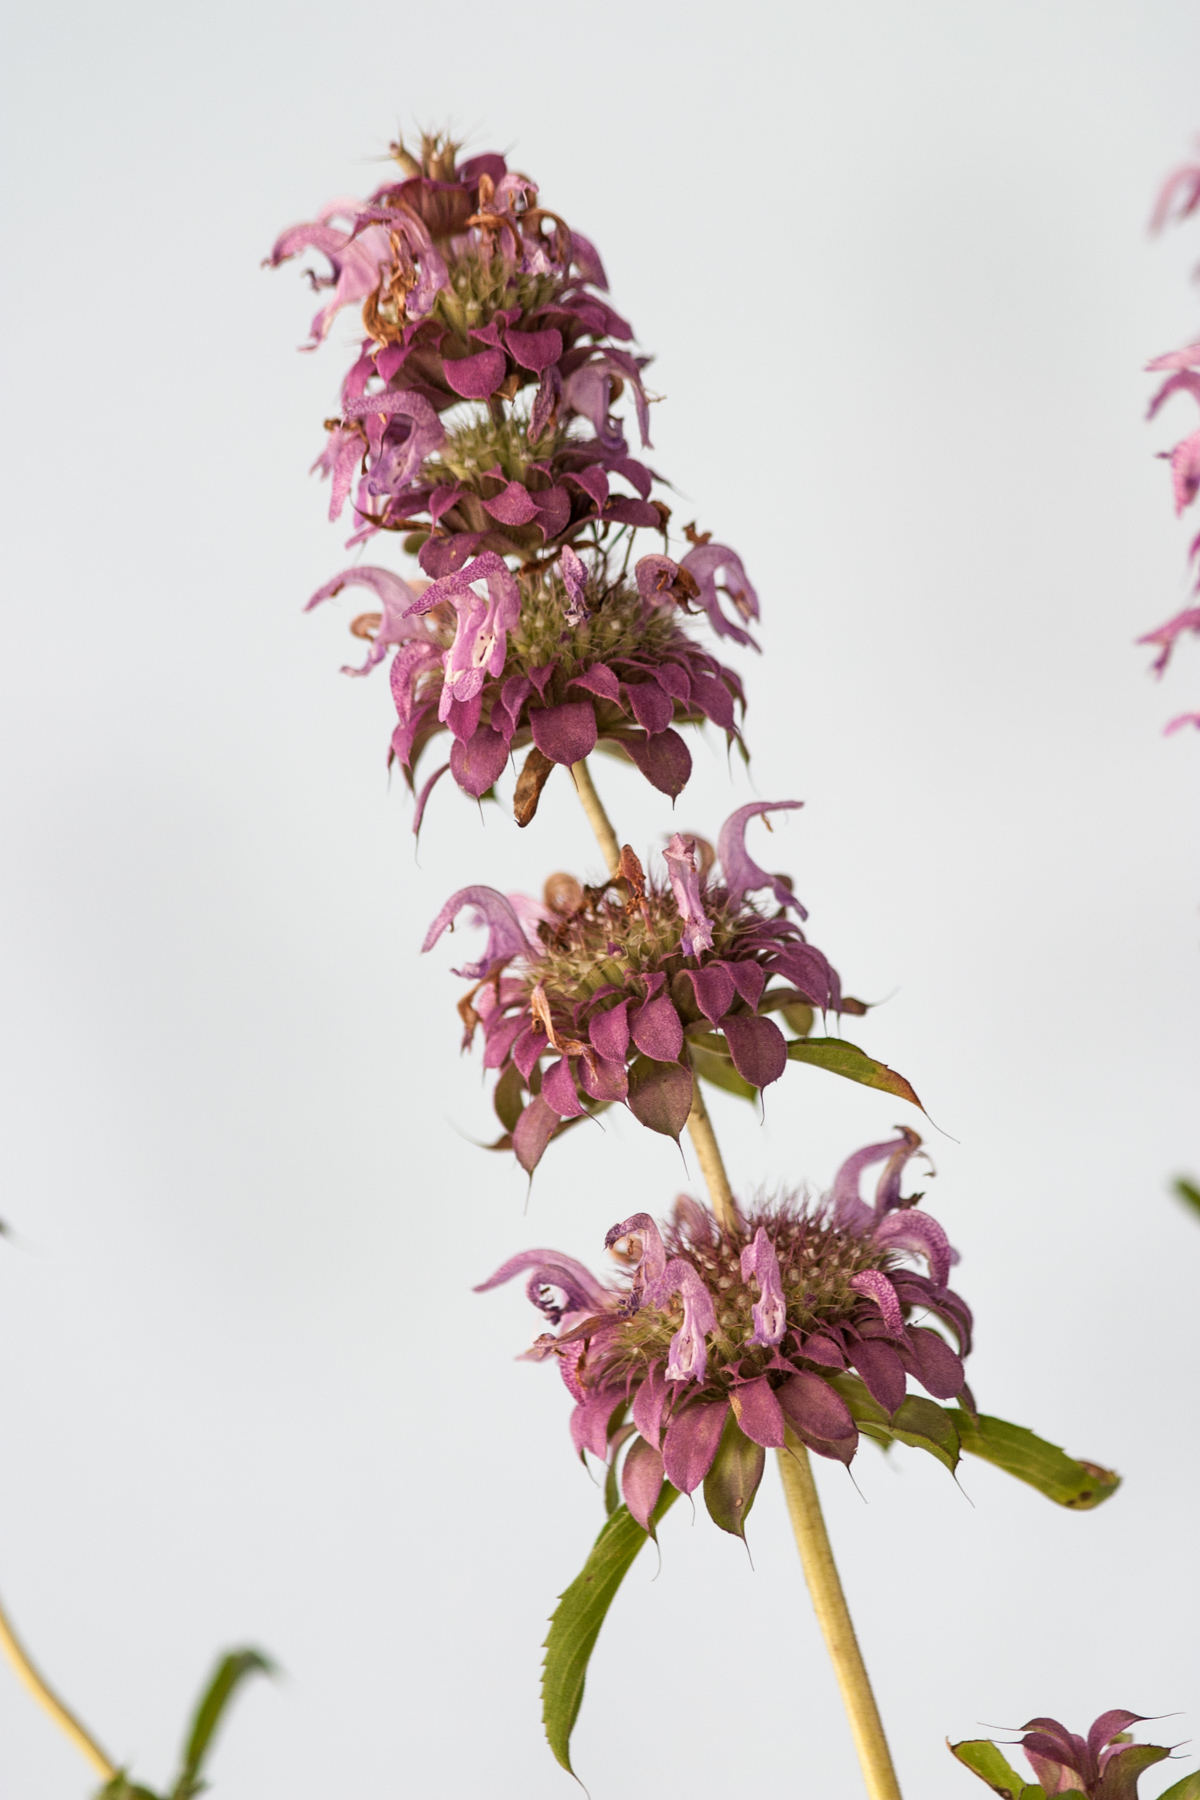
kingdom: Plantae
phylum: Tracheophyta
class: Magnoliopsida
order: Lamiales
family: Lamiaceae
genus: Monarda
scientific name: Monarda citriodora
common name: Lemon beebalm
